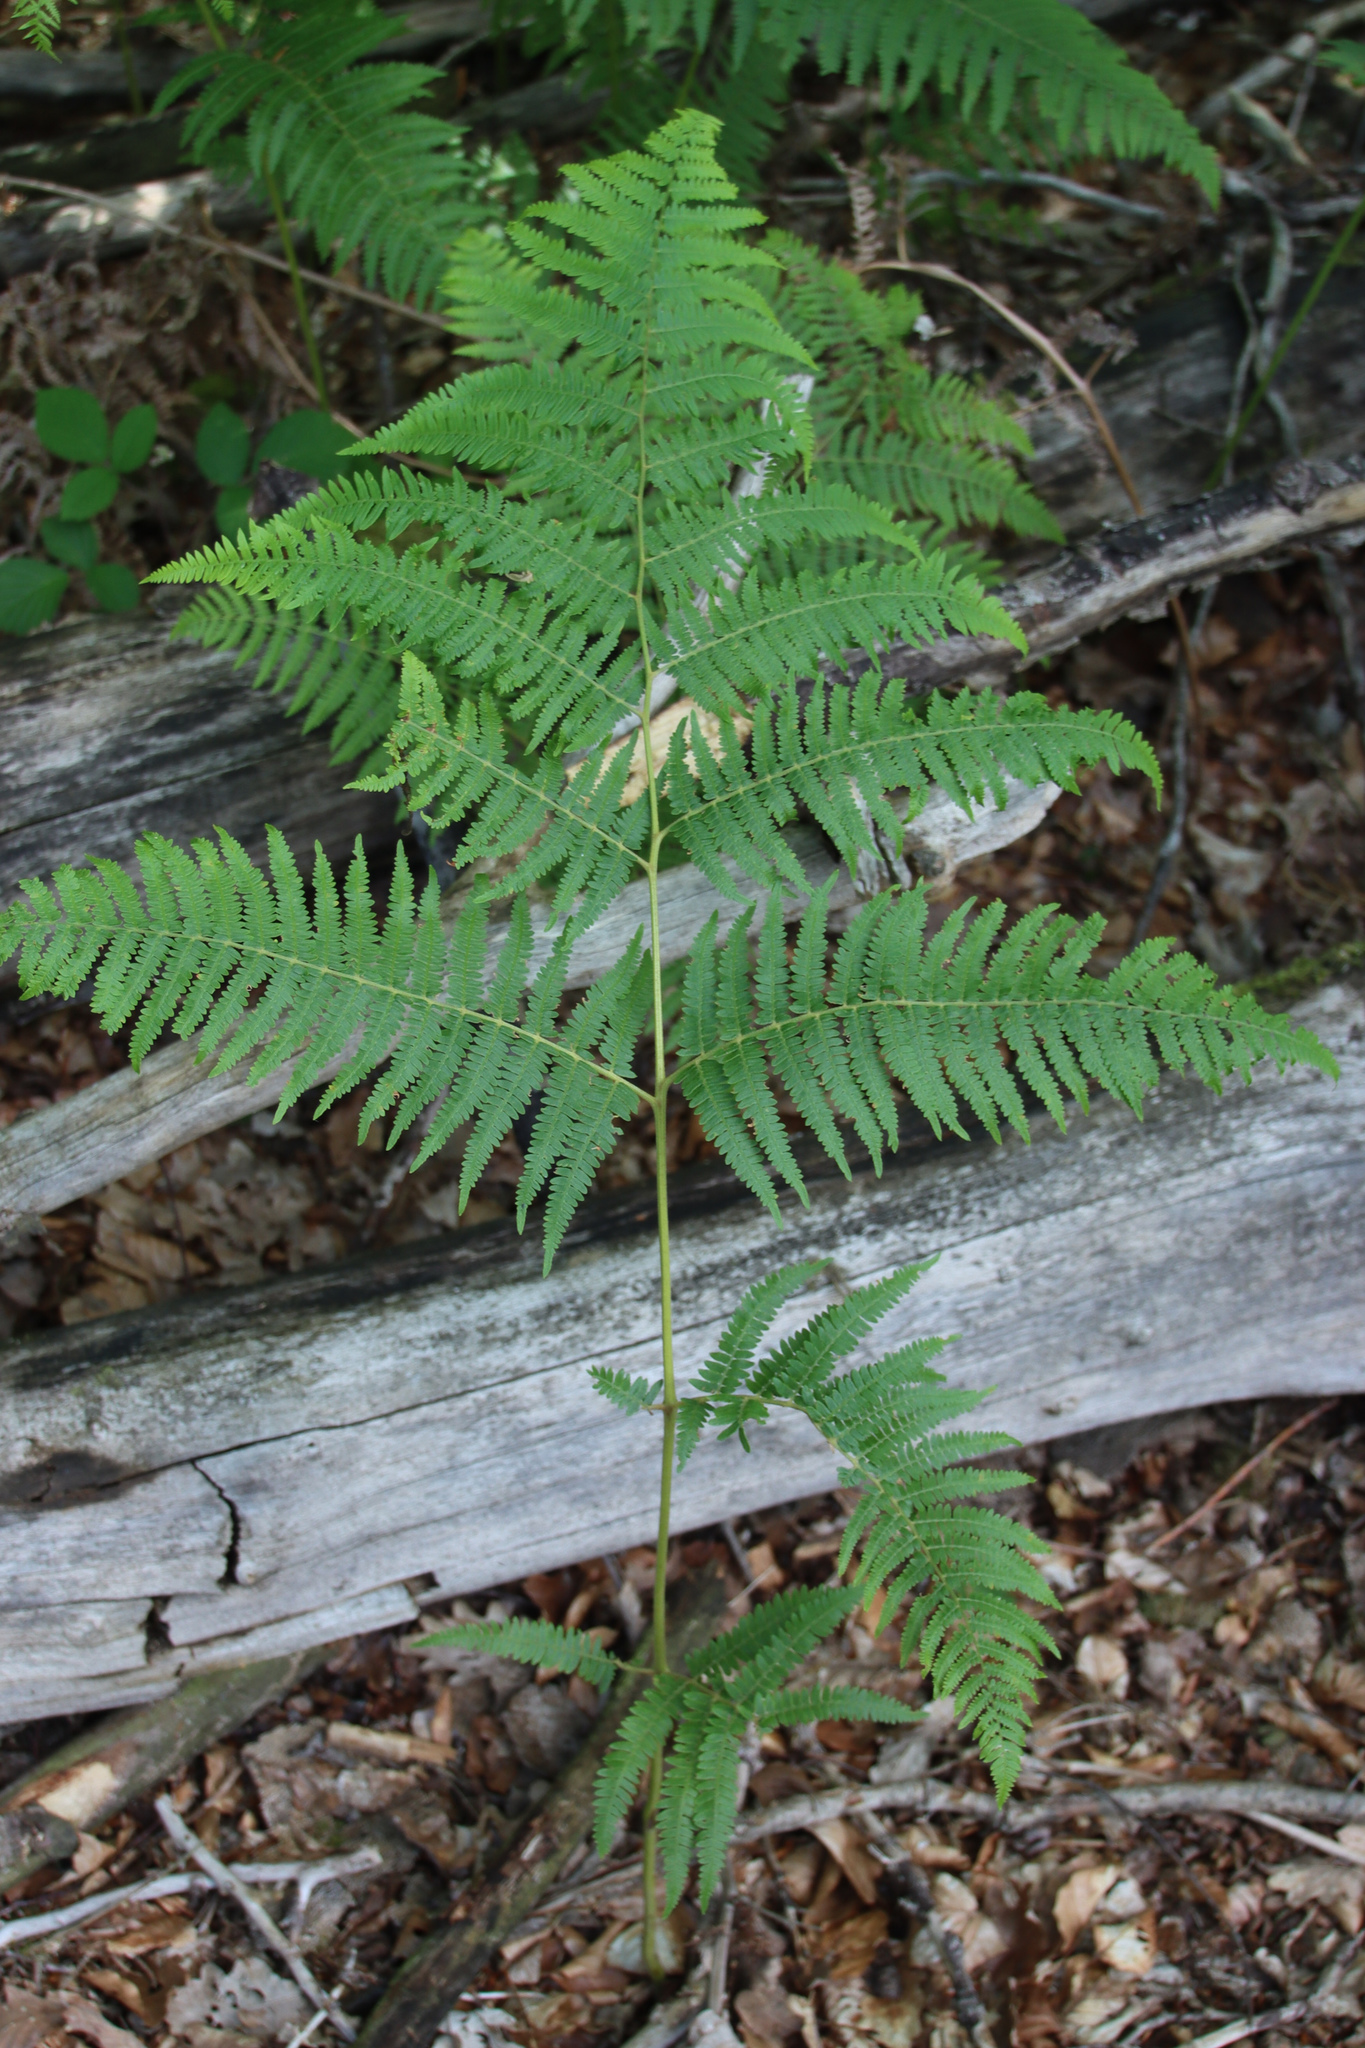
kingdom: Plantae
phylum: Tracheophyta
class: Polypodiopsida
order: Polypodiales
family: Dennstaedtiaceae
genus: Pteridium
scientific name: Pteridium aquilinum
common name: Bracken
